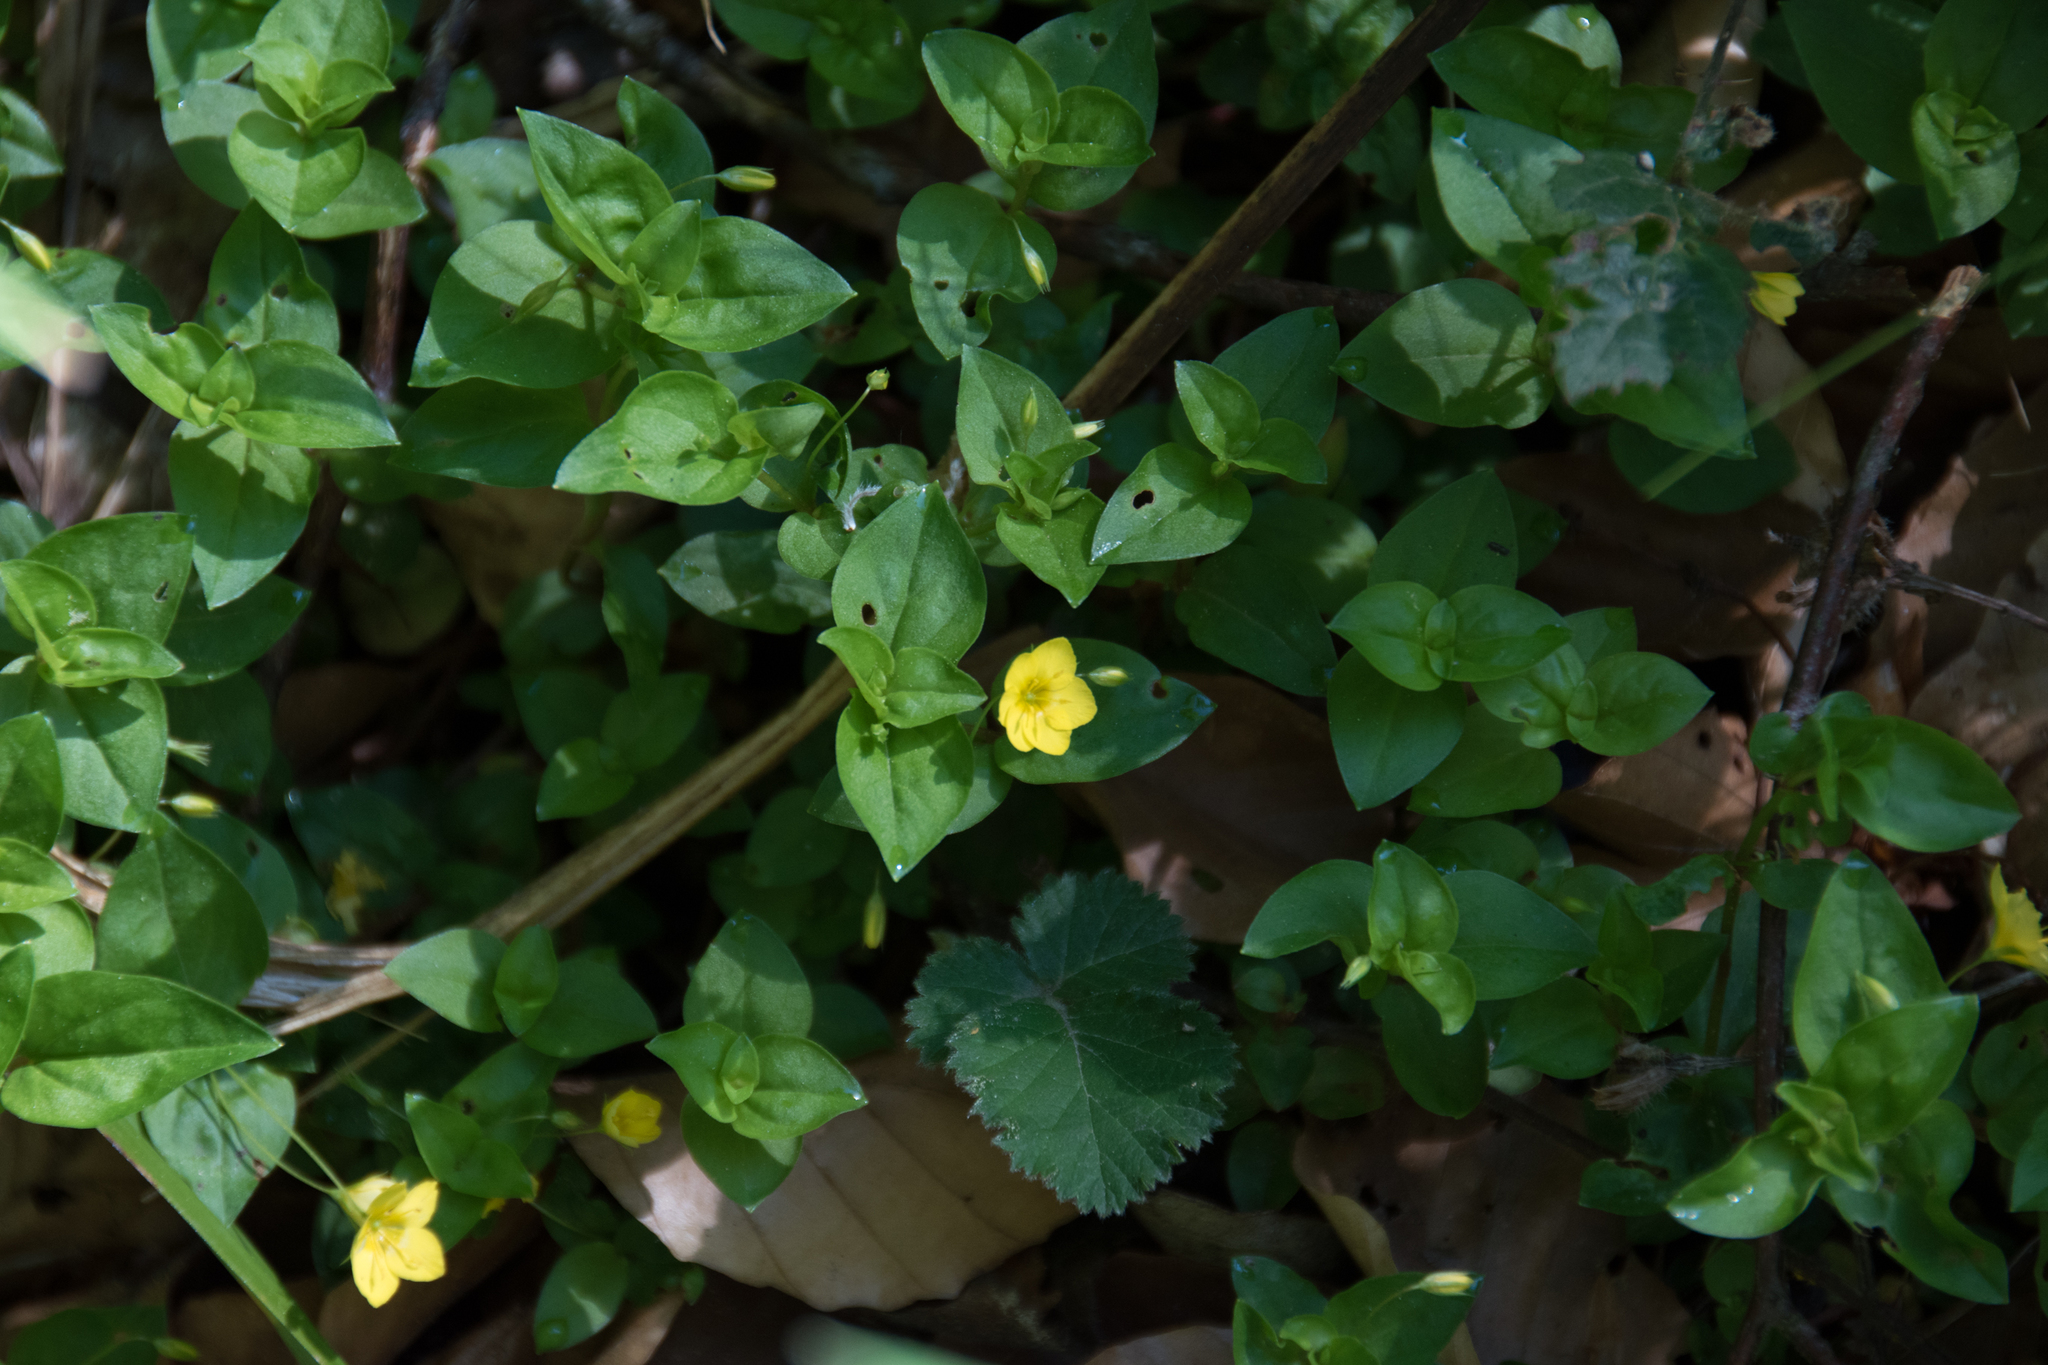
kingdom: Plantae
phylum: Tracheophyta
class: Magnoliopsida
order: Ericales
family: Primulaceae
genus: Lysimachia
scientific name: Lysimachia nemorum
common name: Yellow pimpernel
